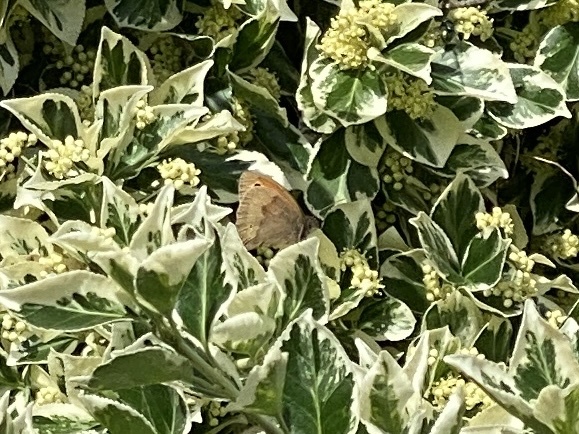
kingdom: Animalia
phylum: Arthropoda
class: Insecta
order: Lepidoptera
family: Nymphalidae
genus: Maniola
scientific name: Maniola jurtina
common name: Meadow brown
